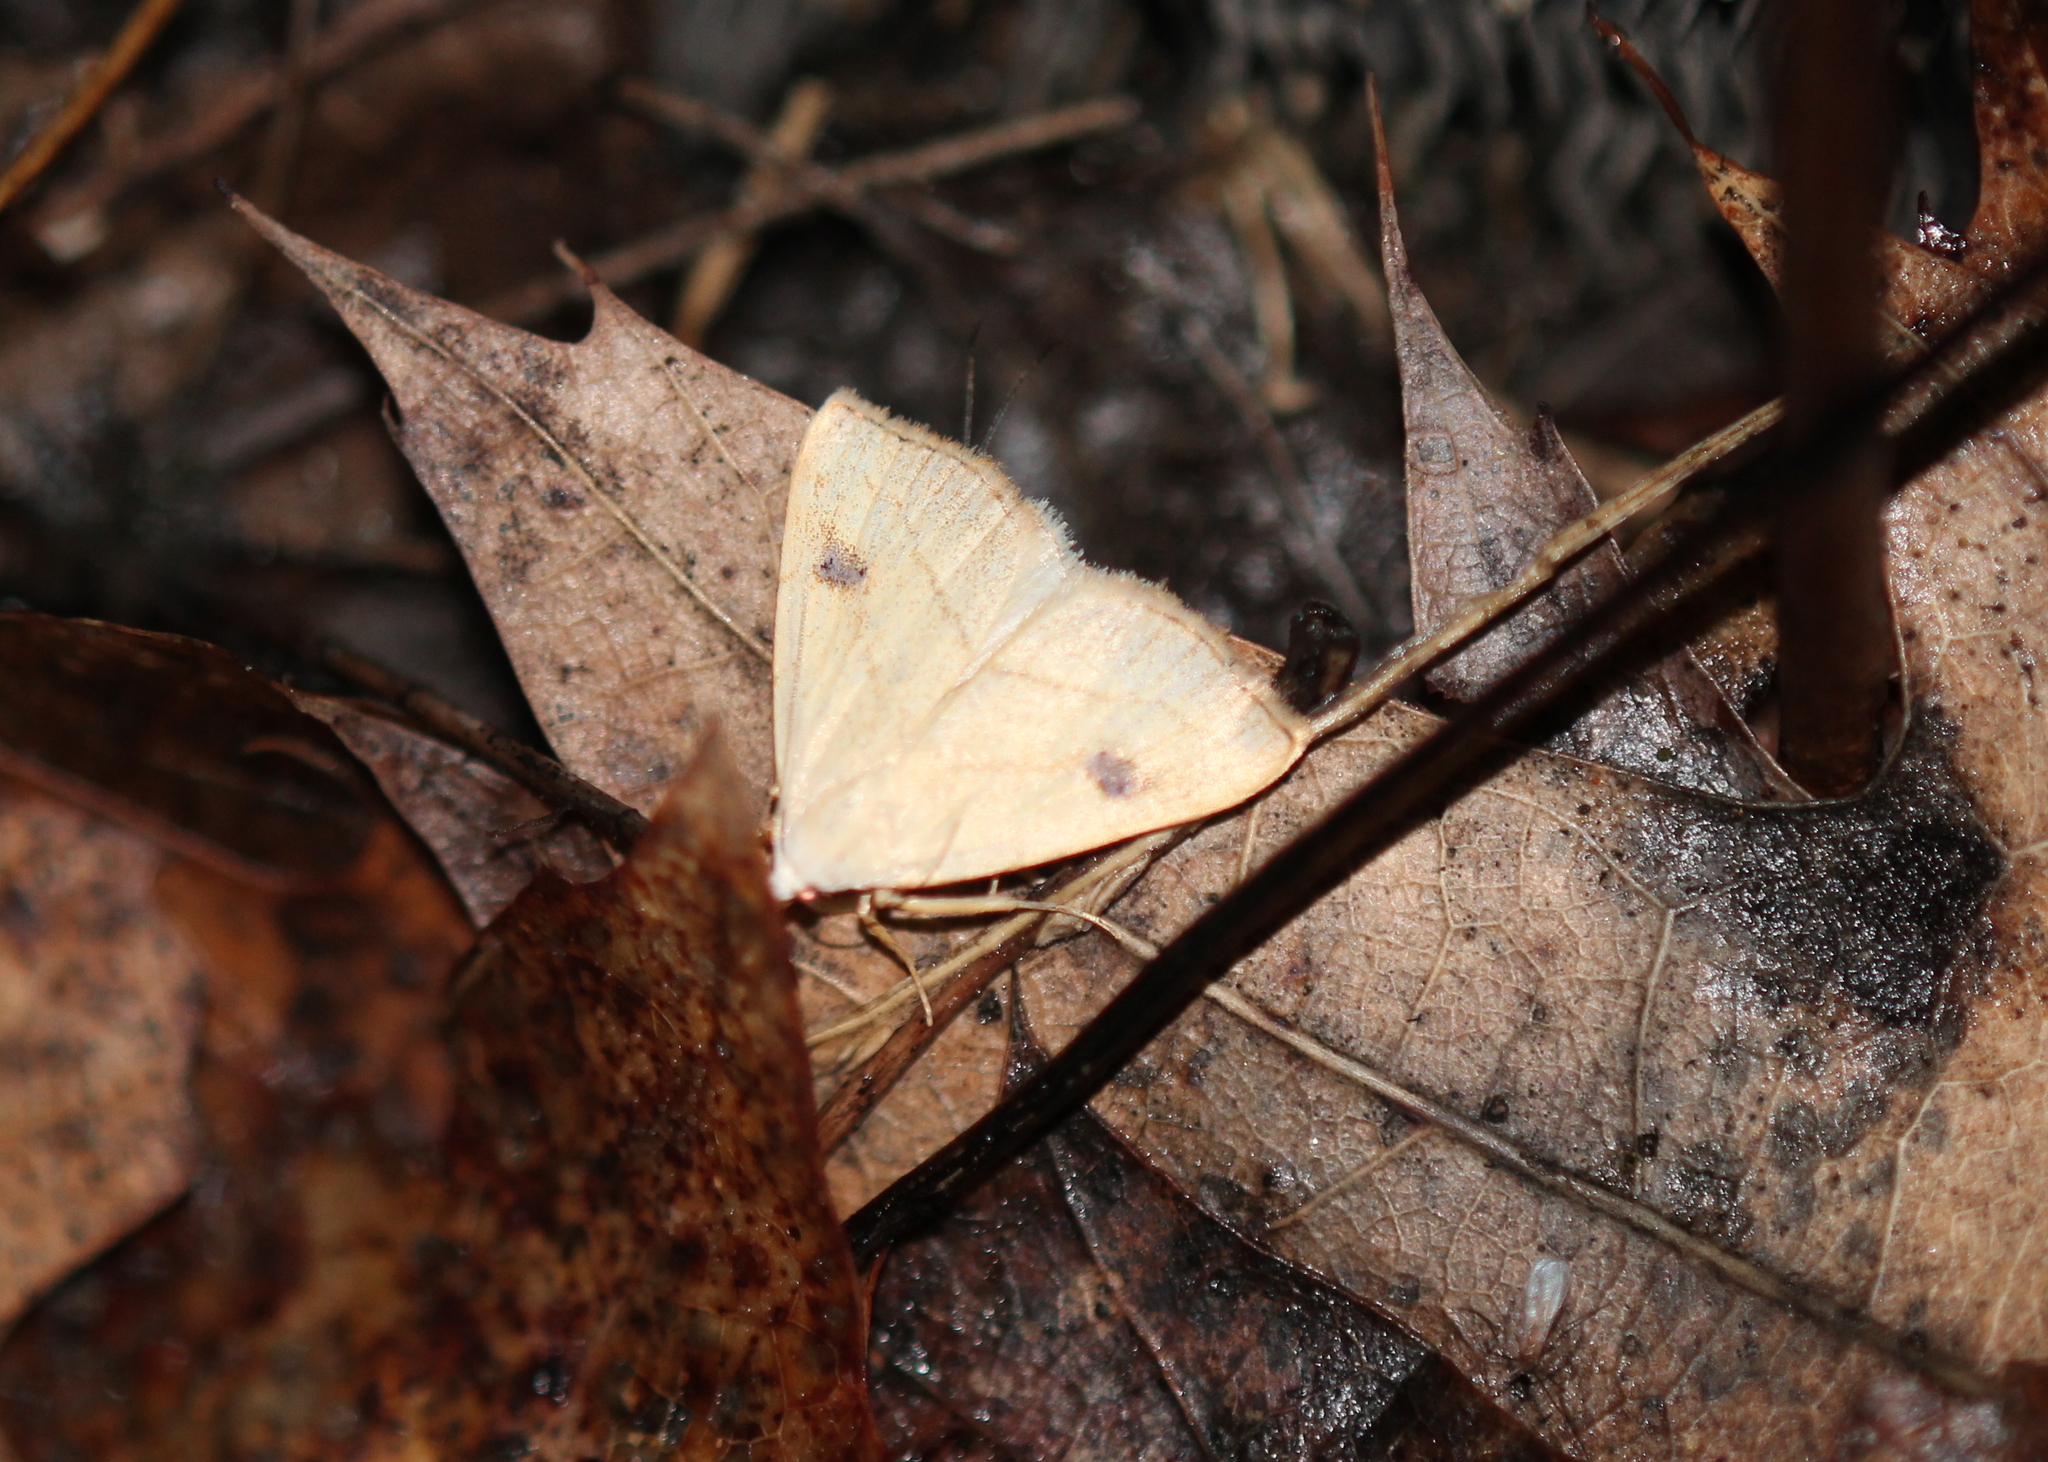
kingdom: Animalia
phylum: Arthropoda
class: Insecta
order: Lepidoptera
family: Erebidae
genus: Rivula
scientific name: Rivula propinqualis
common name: Spotted grass moth
